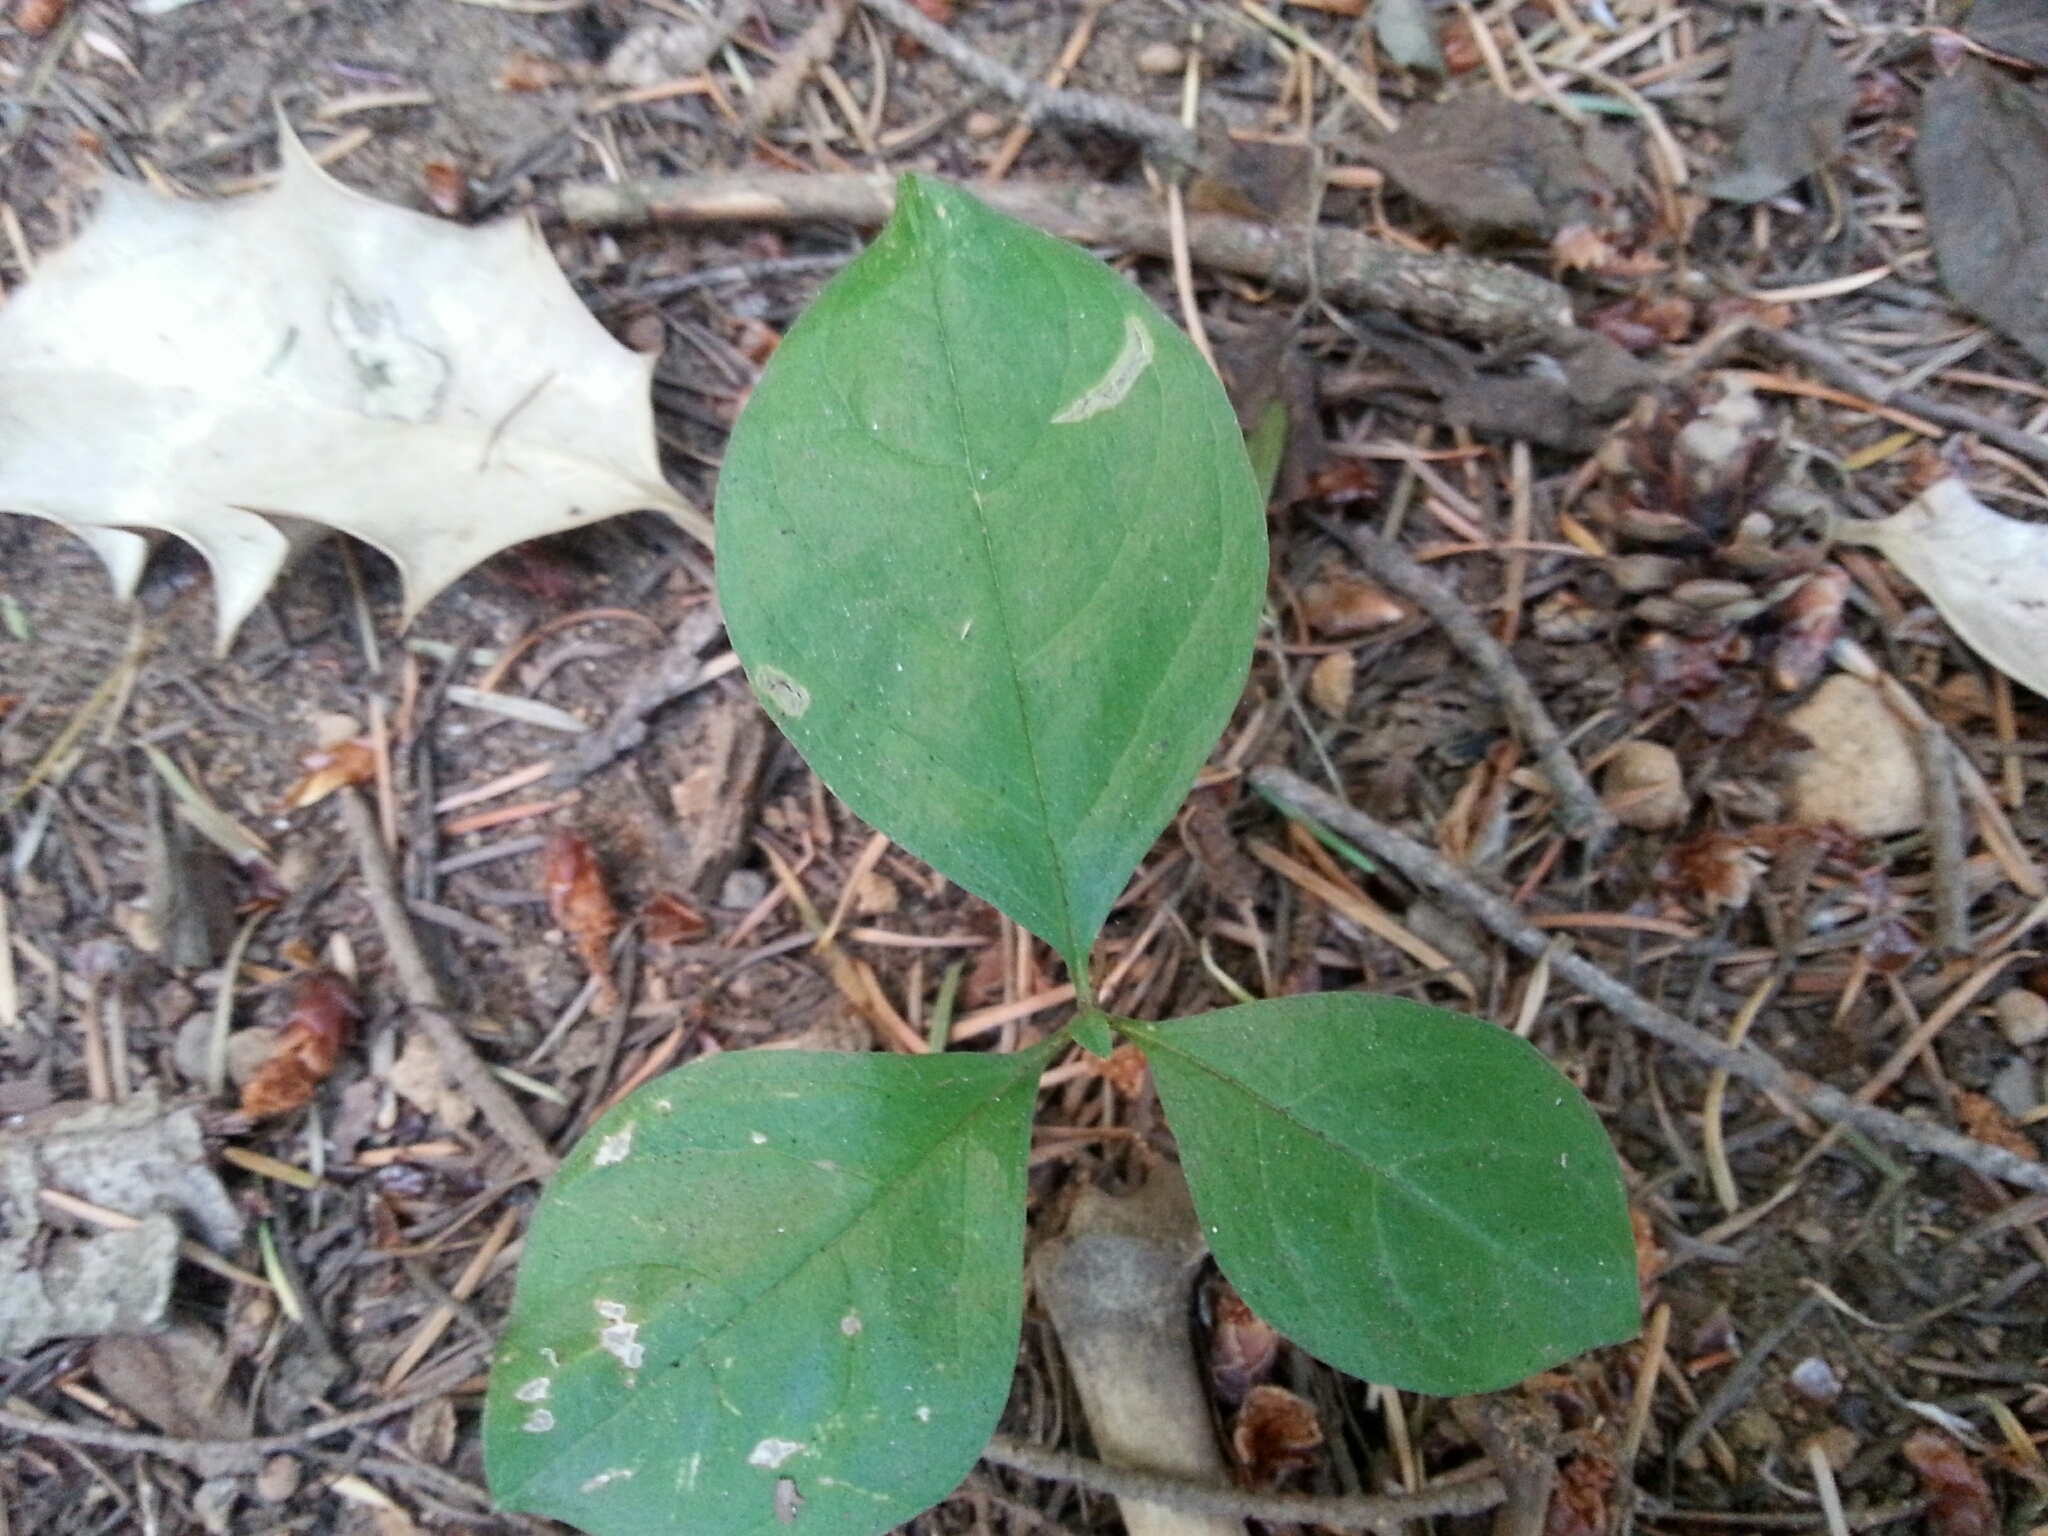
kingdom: Plantae
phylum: Tracheophyta
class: Magnoliopsida
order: Ericales
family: Primulaceae
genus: Lysimachia
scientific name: Lysimachia latifolia
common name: Pacific starflower
